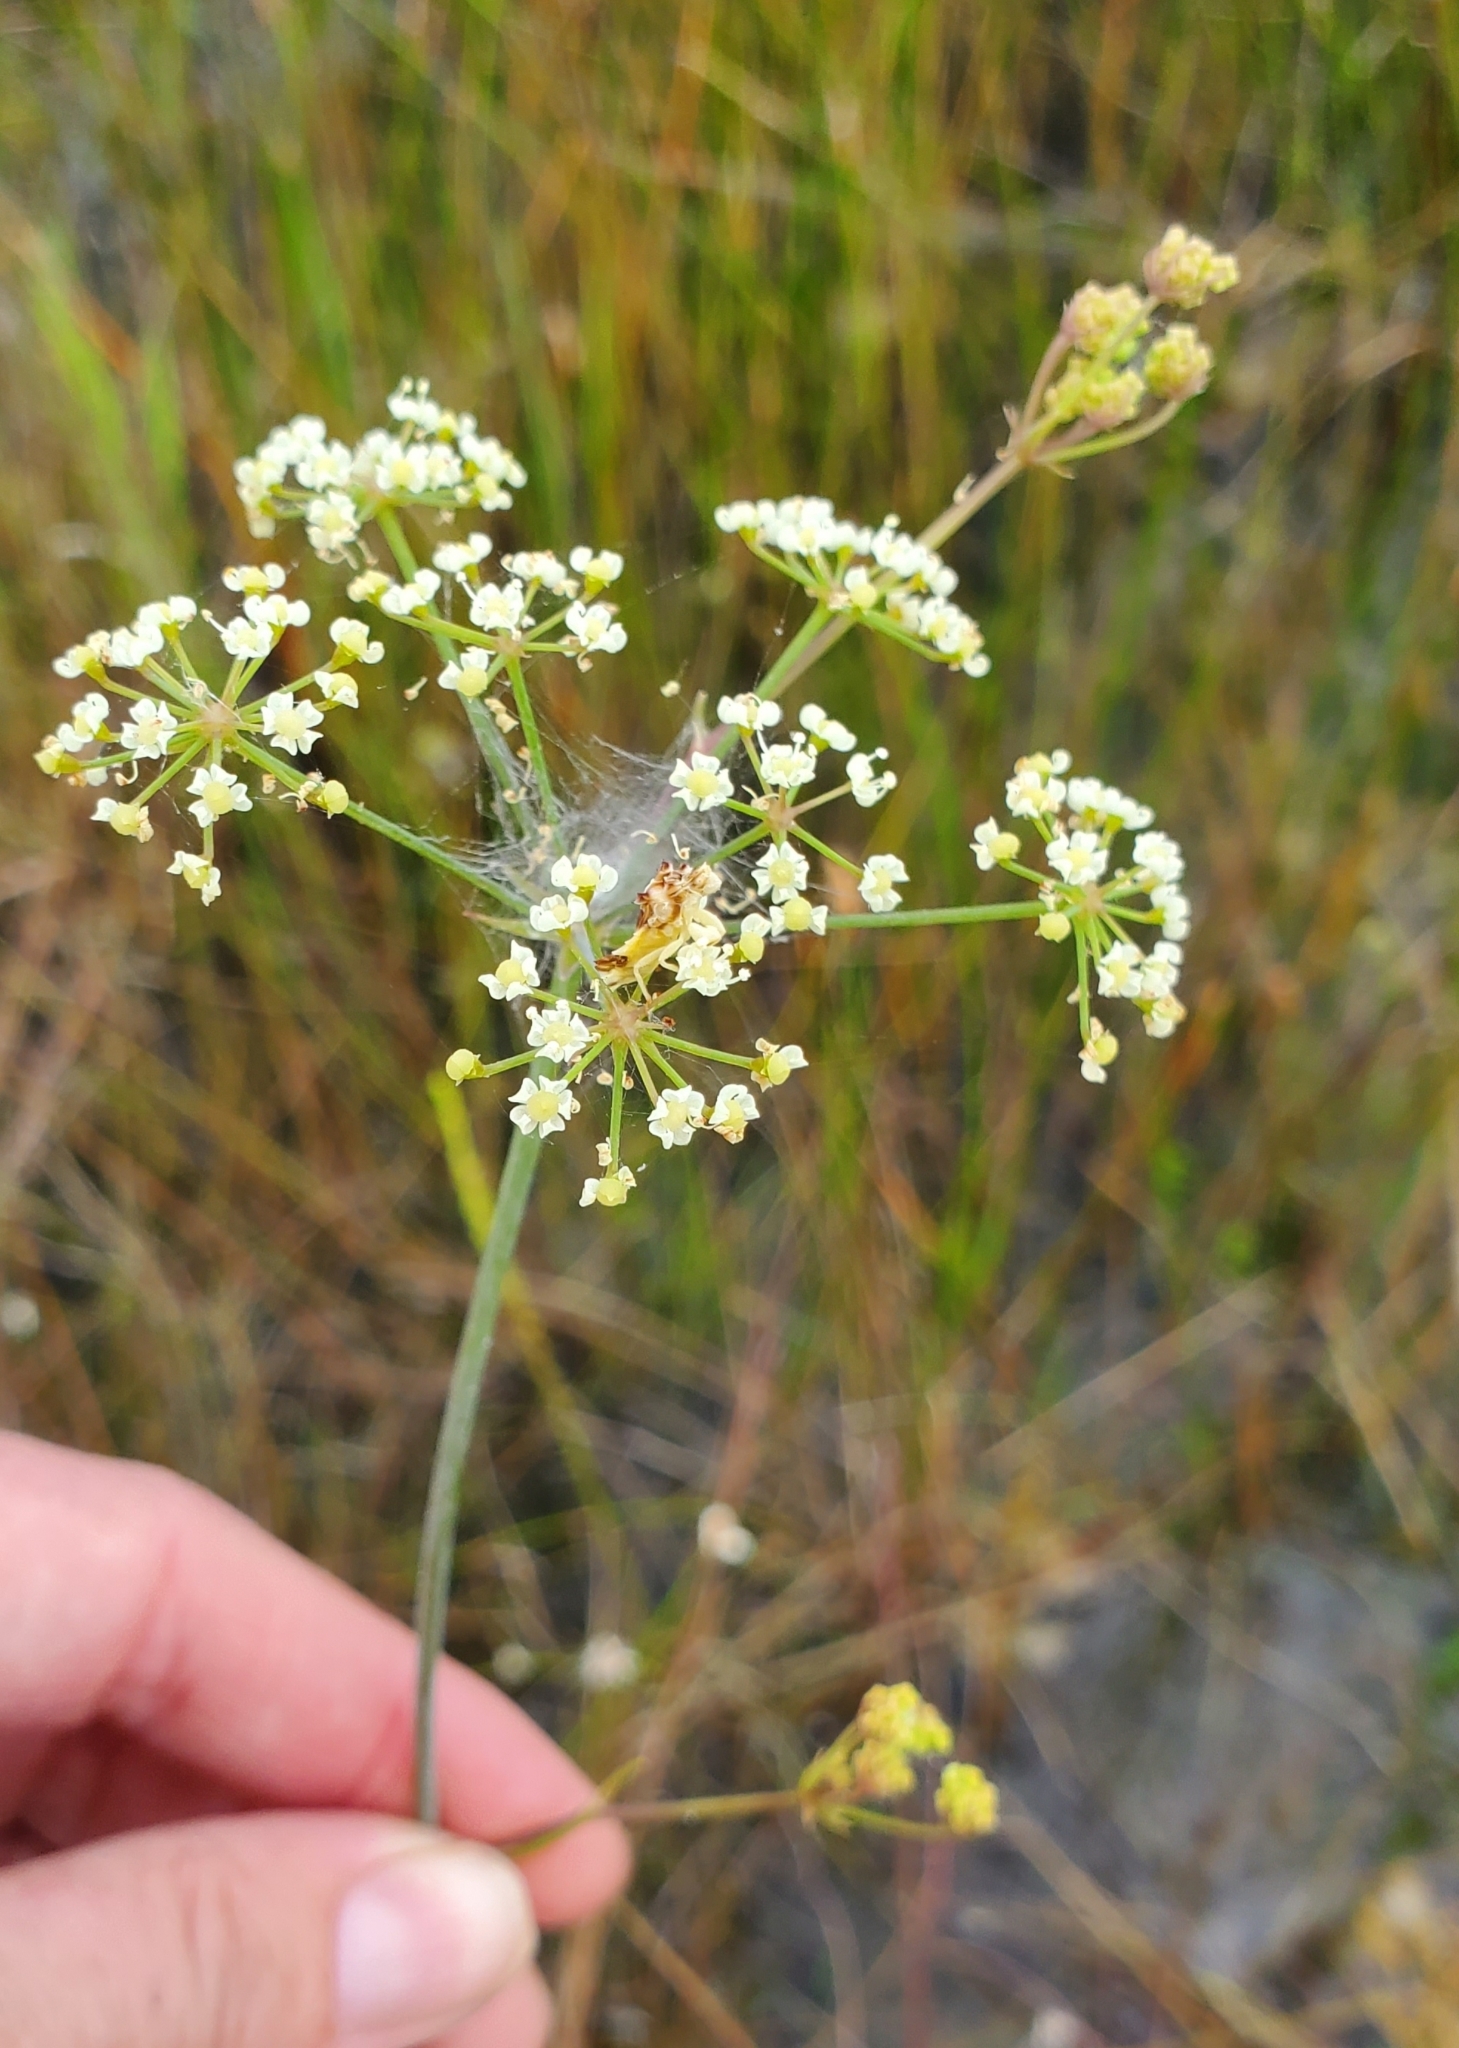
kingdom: Plantae
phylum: Tracheophyta
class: Magnoliopsida
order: Apiales
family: Apiaceae
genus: Tiedemannia
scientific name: Tiedemannia filiformis
